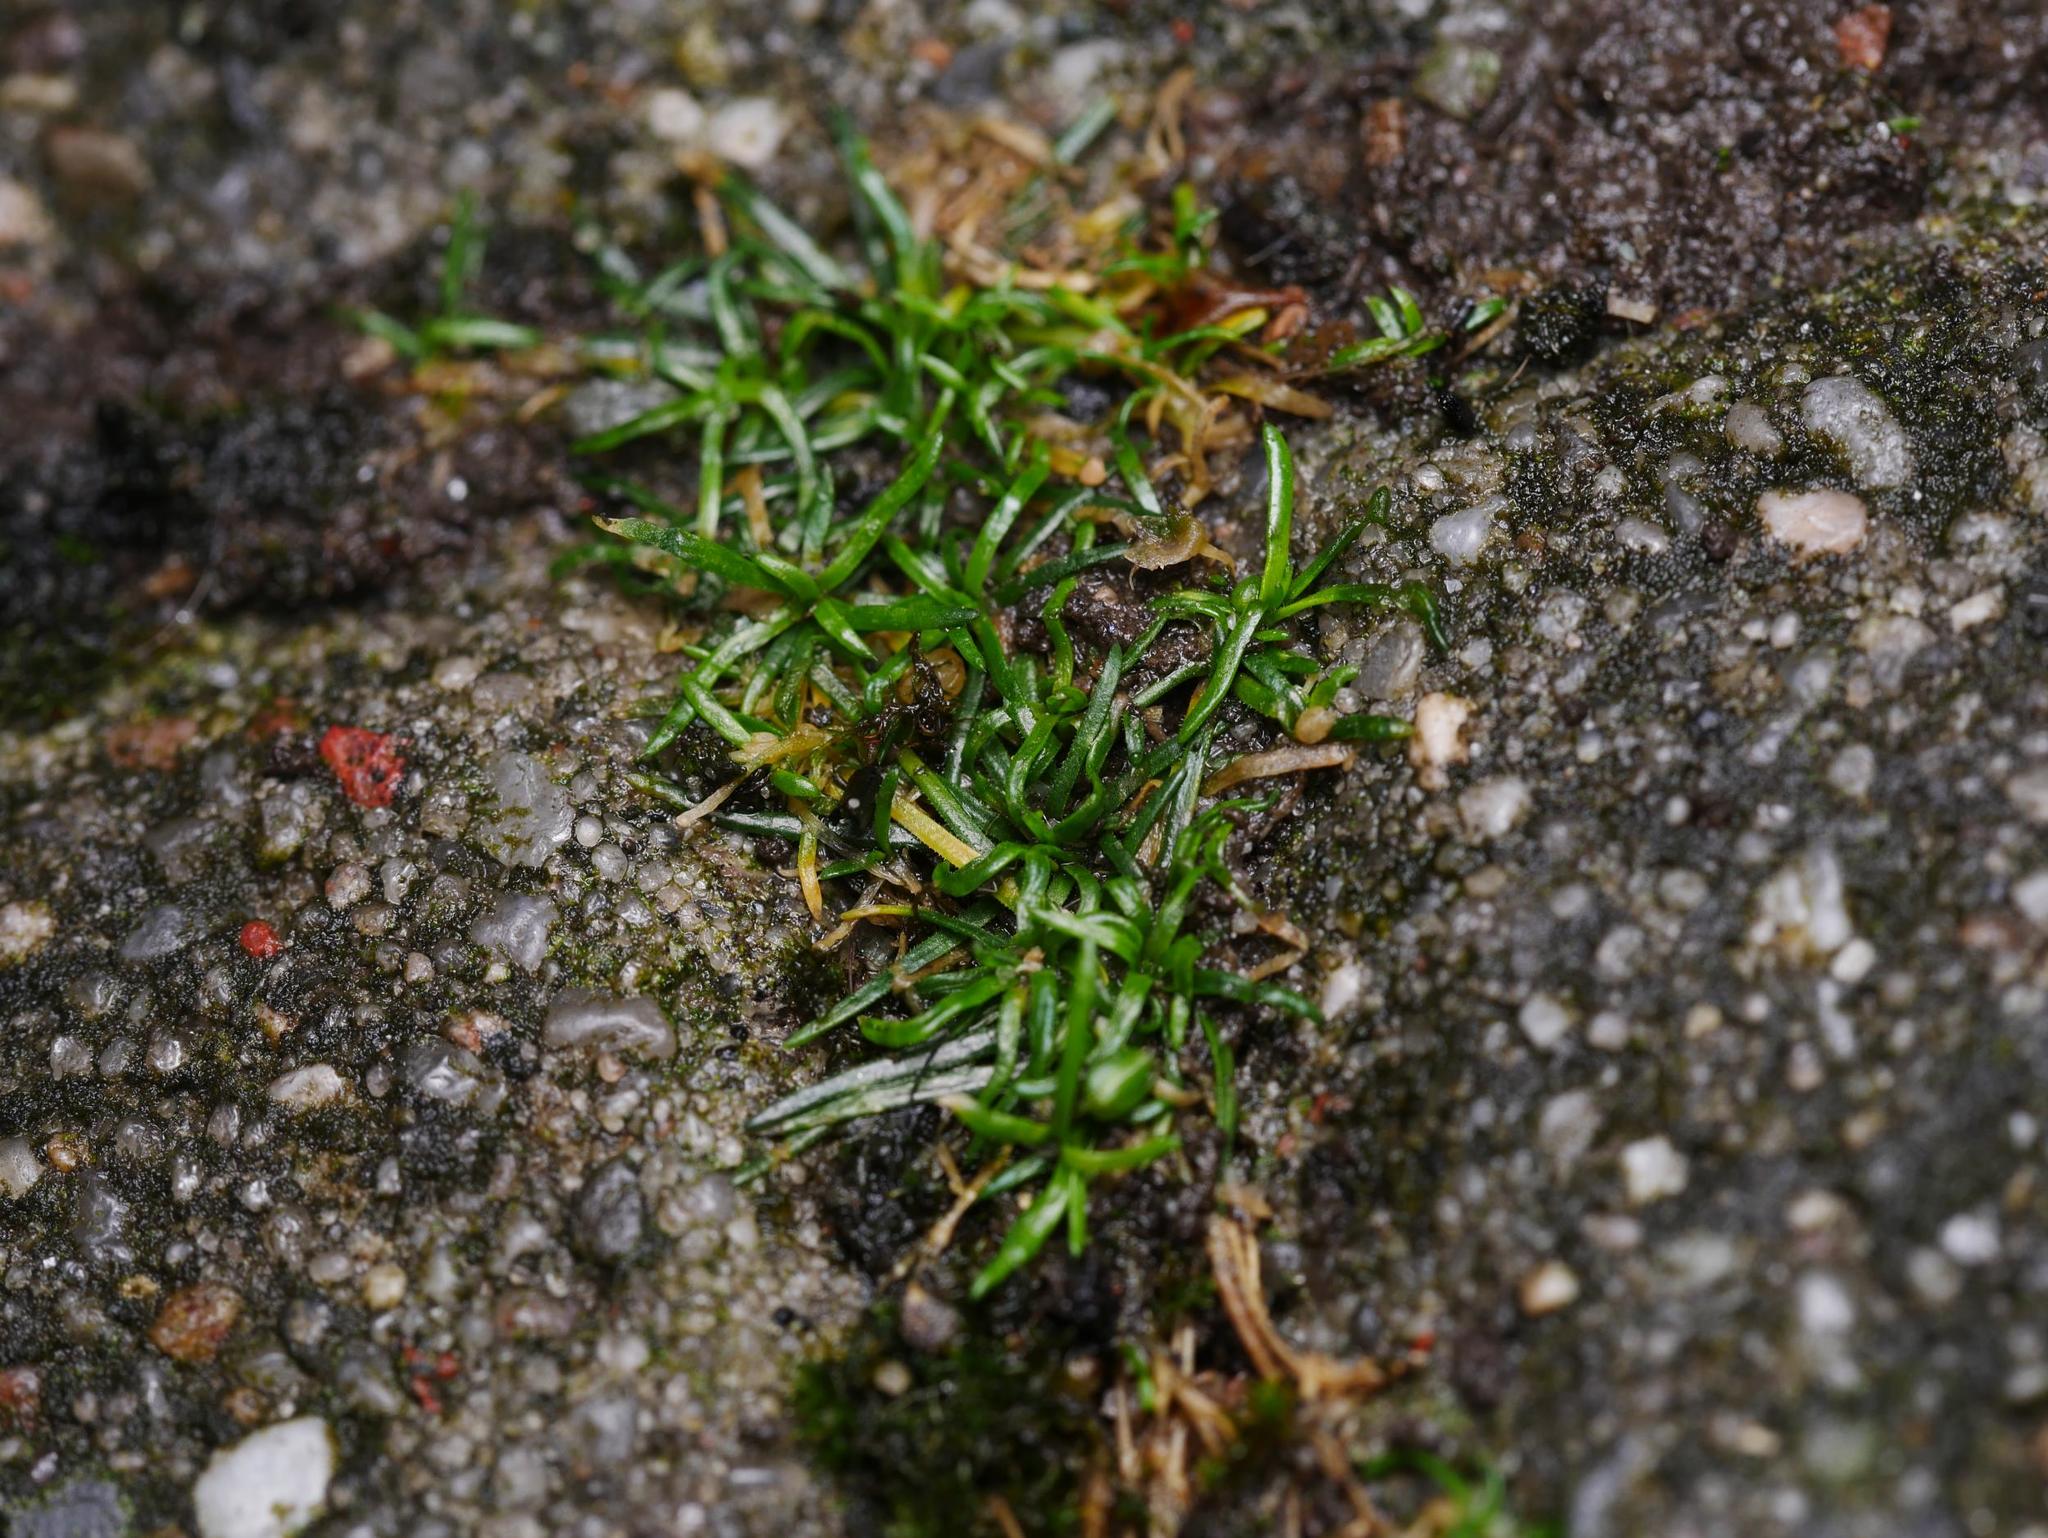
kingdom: Plantae
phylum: Tracheophyta
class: Magnoliopsida
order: Caryophyllales
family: Caryophyllaceae
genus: Sagina
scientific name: Sagina procumbens
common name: Procumbent pearlwort
